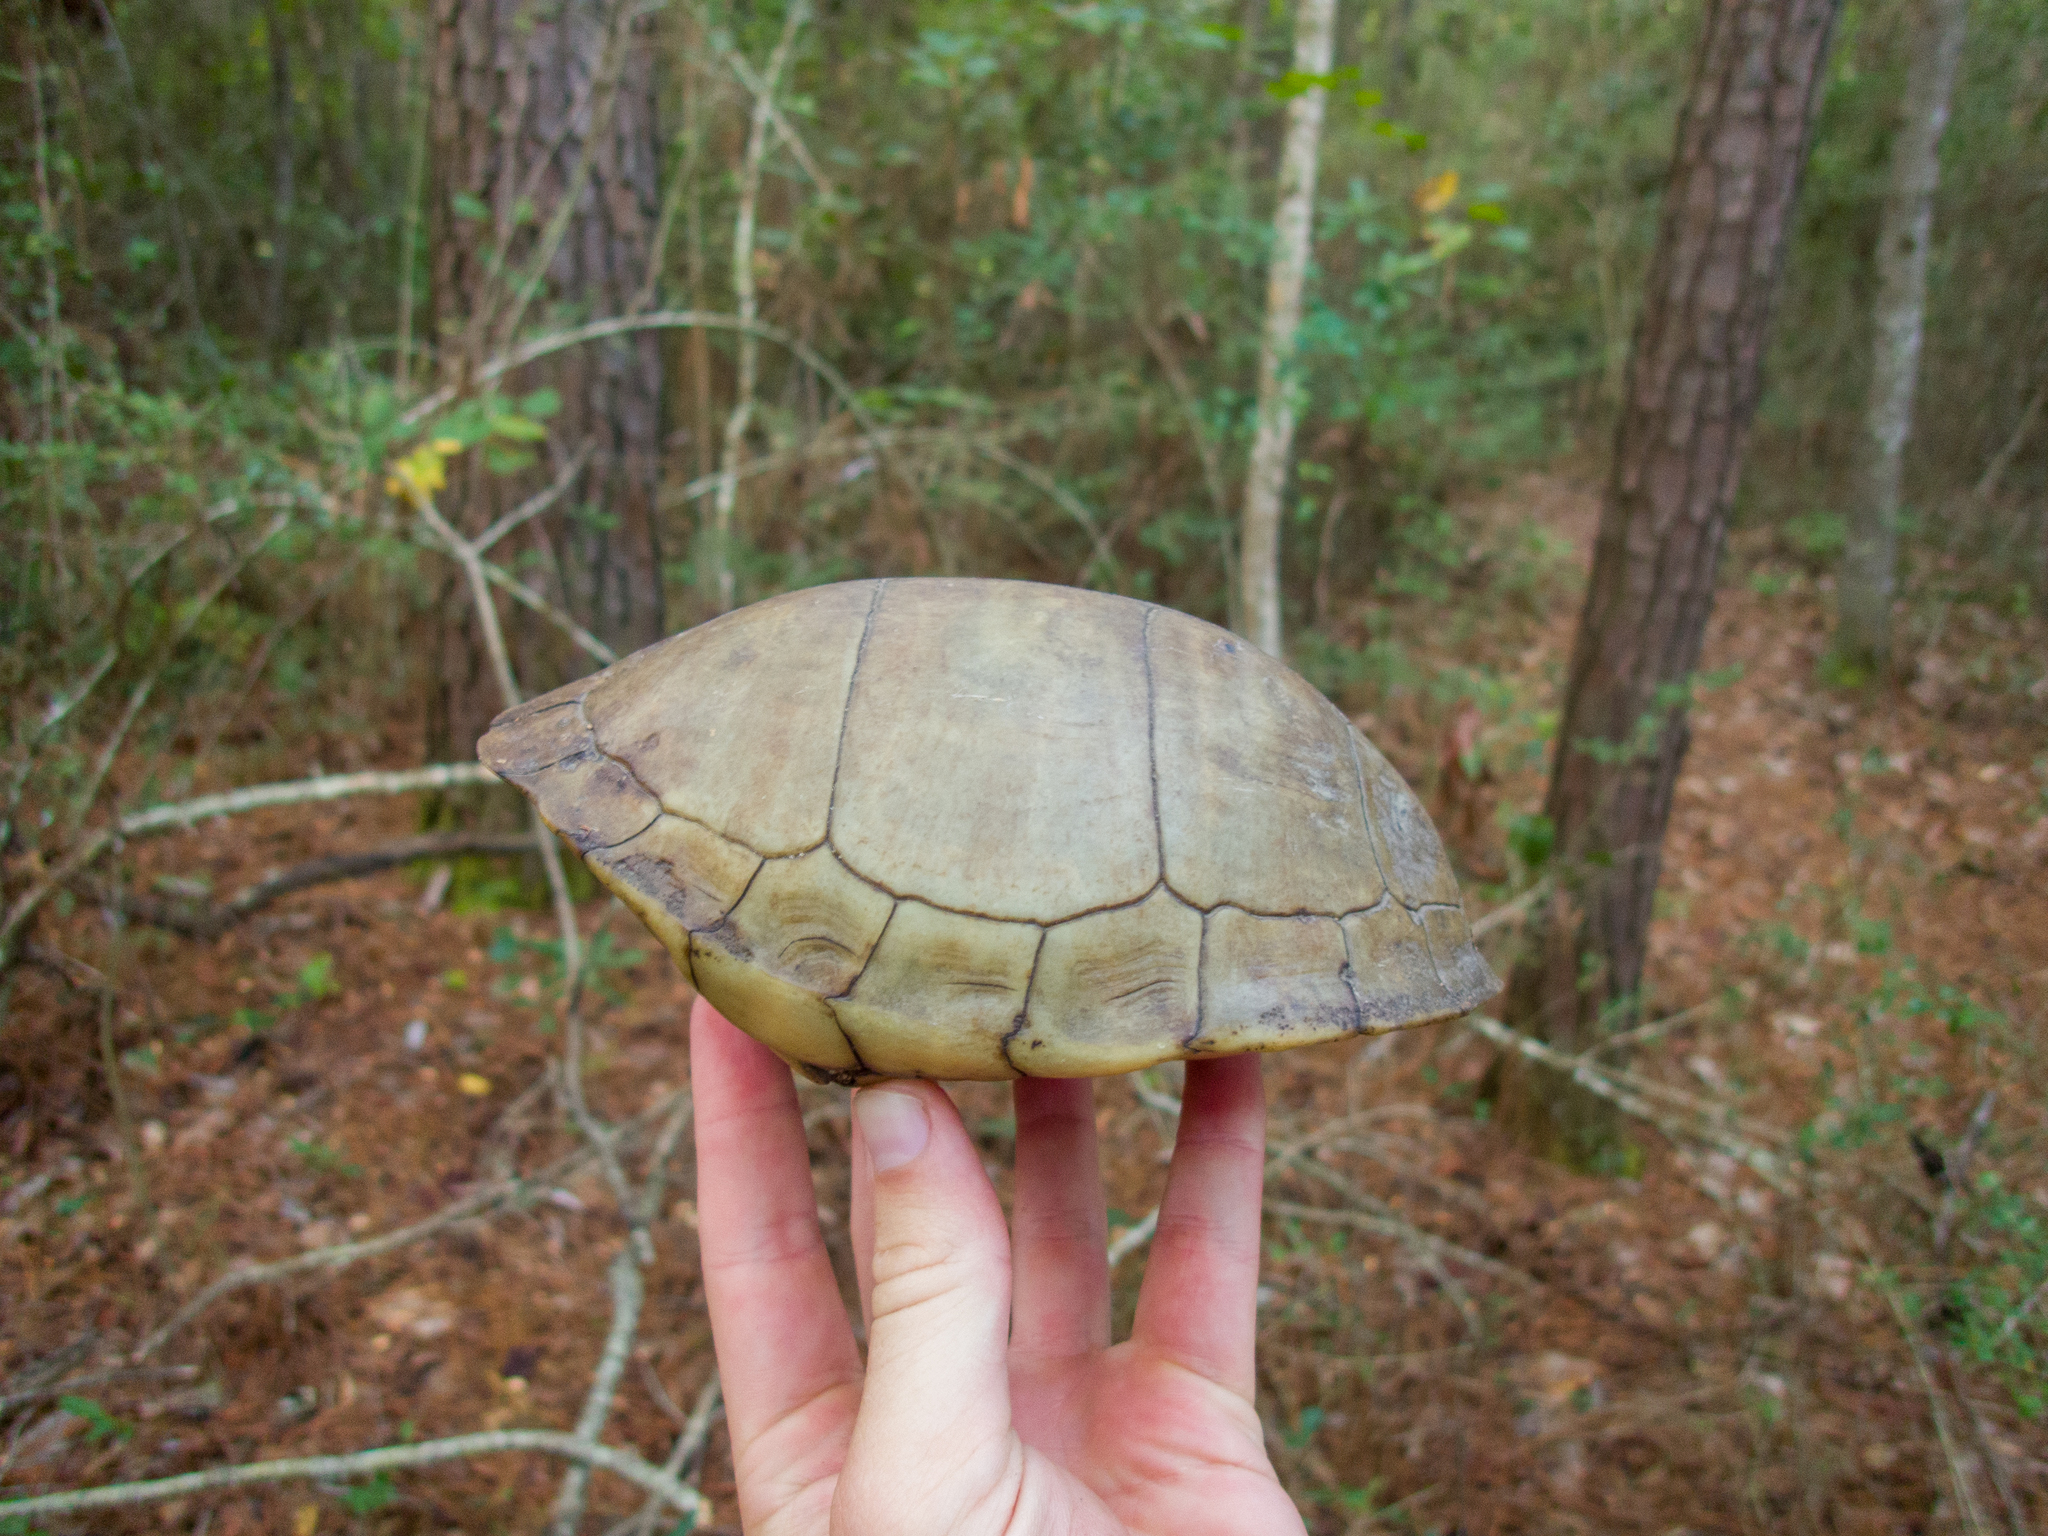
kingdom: Animalia
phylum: Chordata
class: Testudines
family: Emydidae
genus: Terrapene
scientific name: Terrapene carolina
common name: Common box turtle
